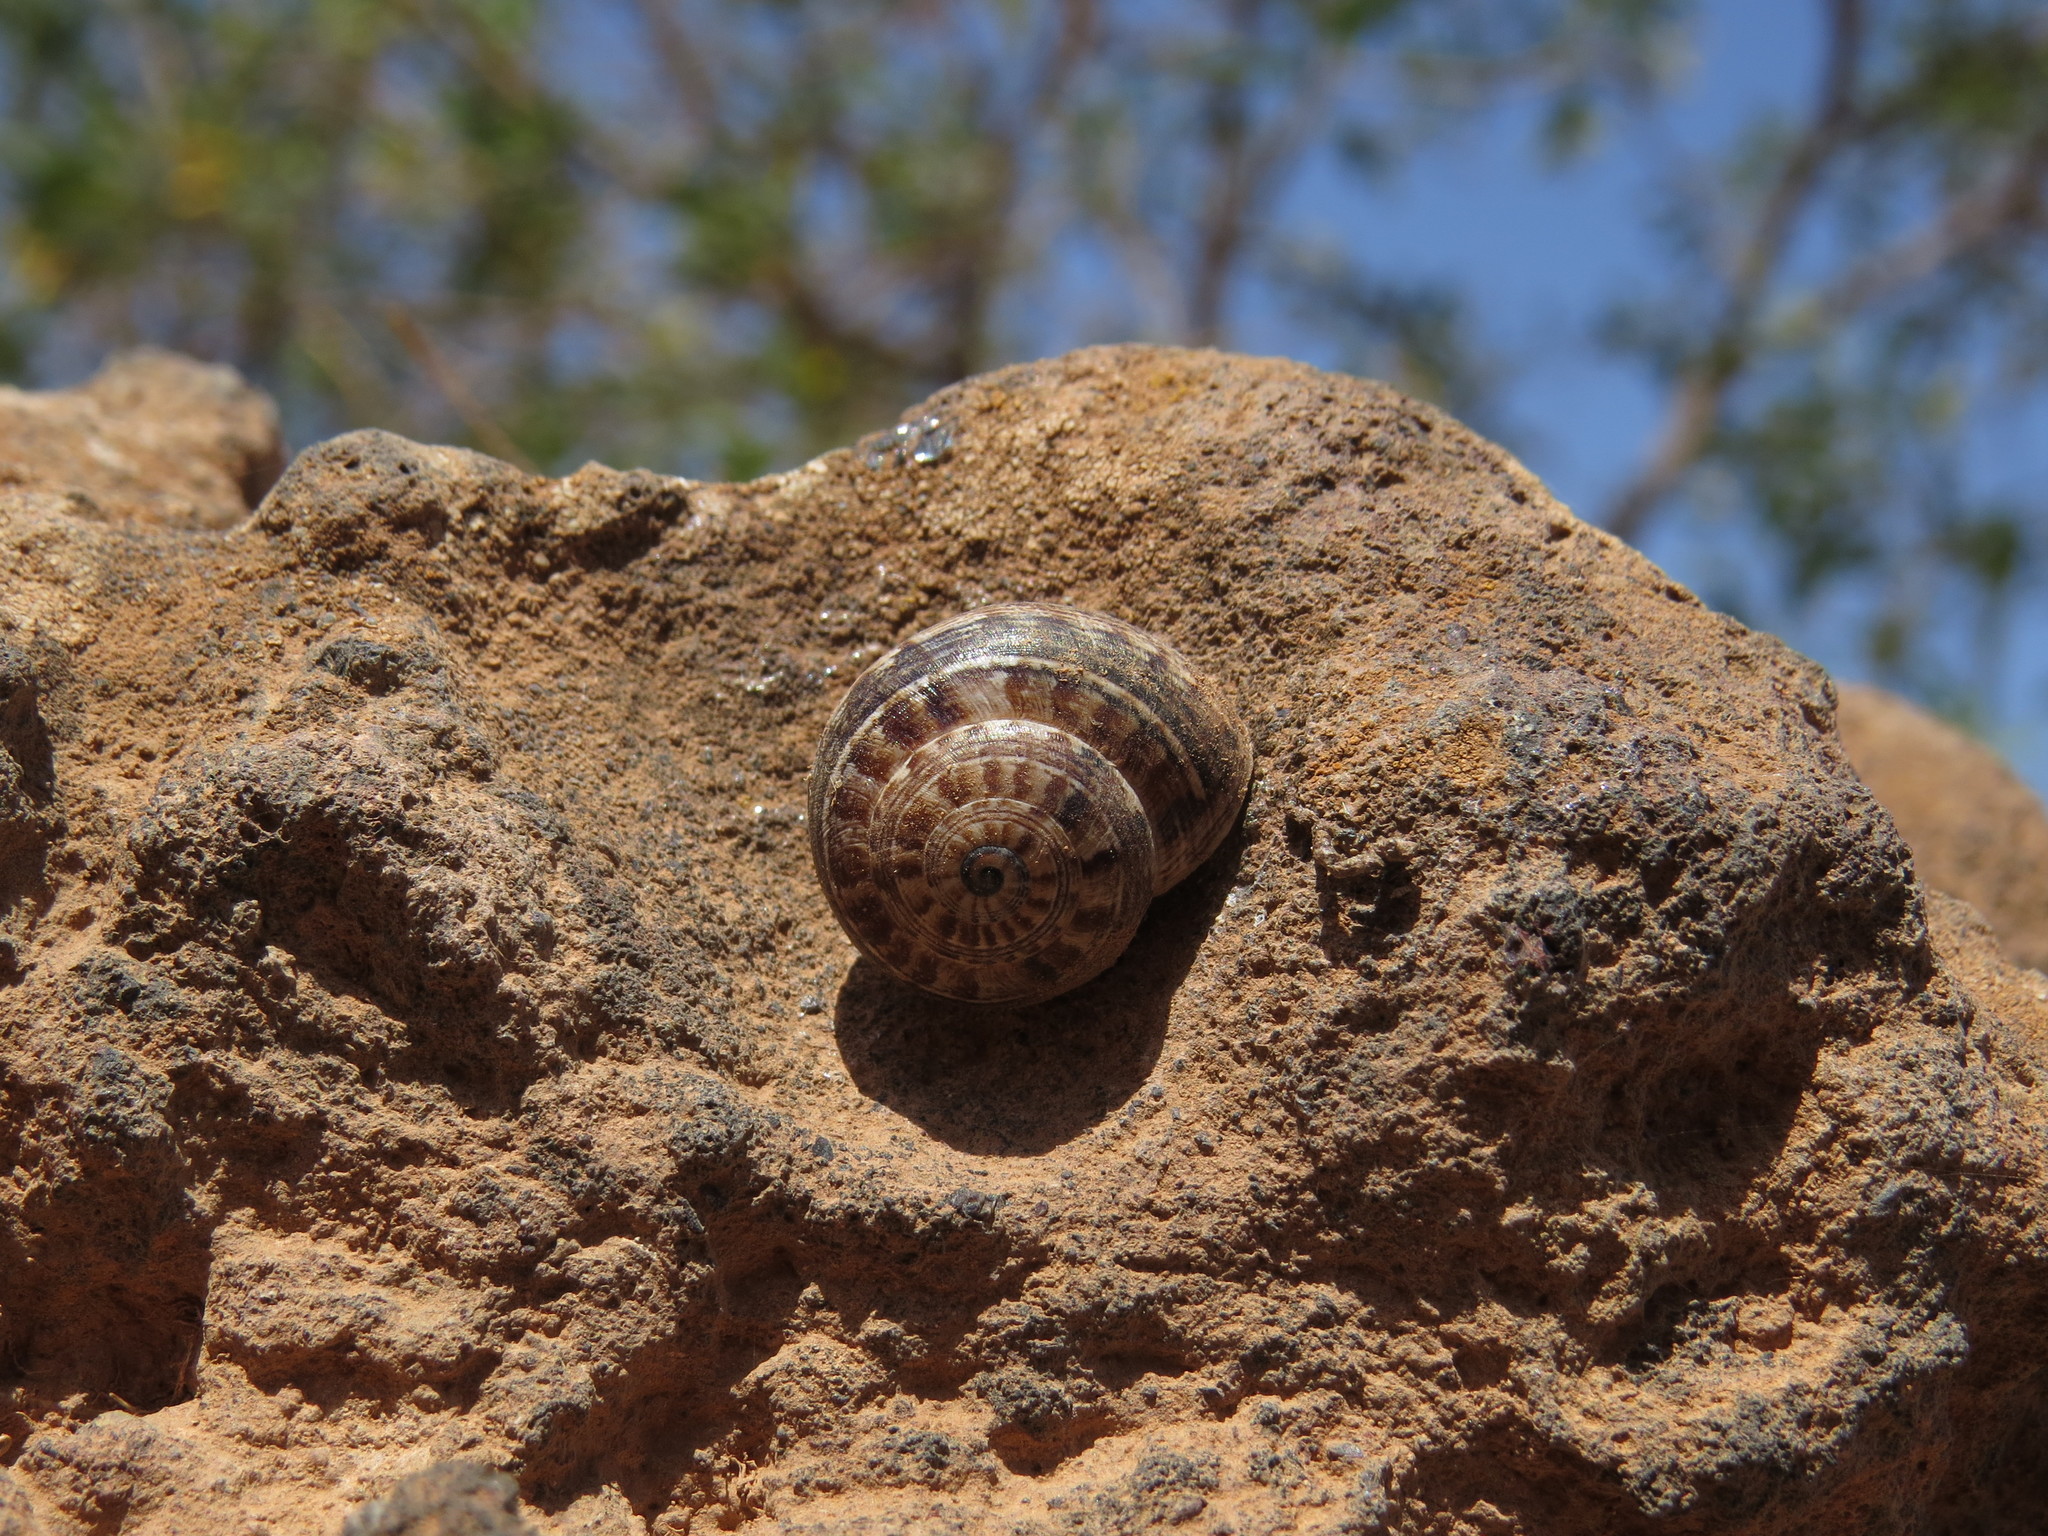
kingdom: Animalia
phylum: Mollusca
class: Gastropoda
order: Stylommatophora
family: Helicidae
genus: Theba
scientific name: Theba geminata
